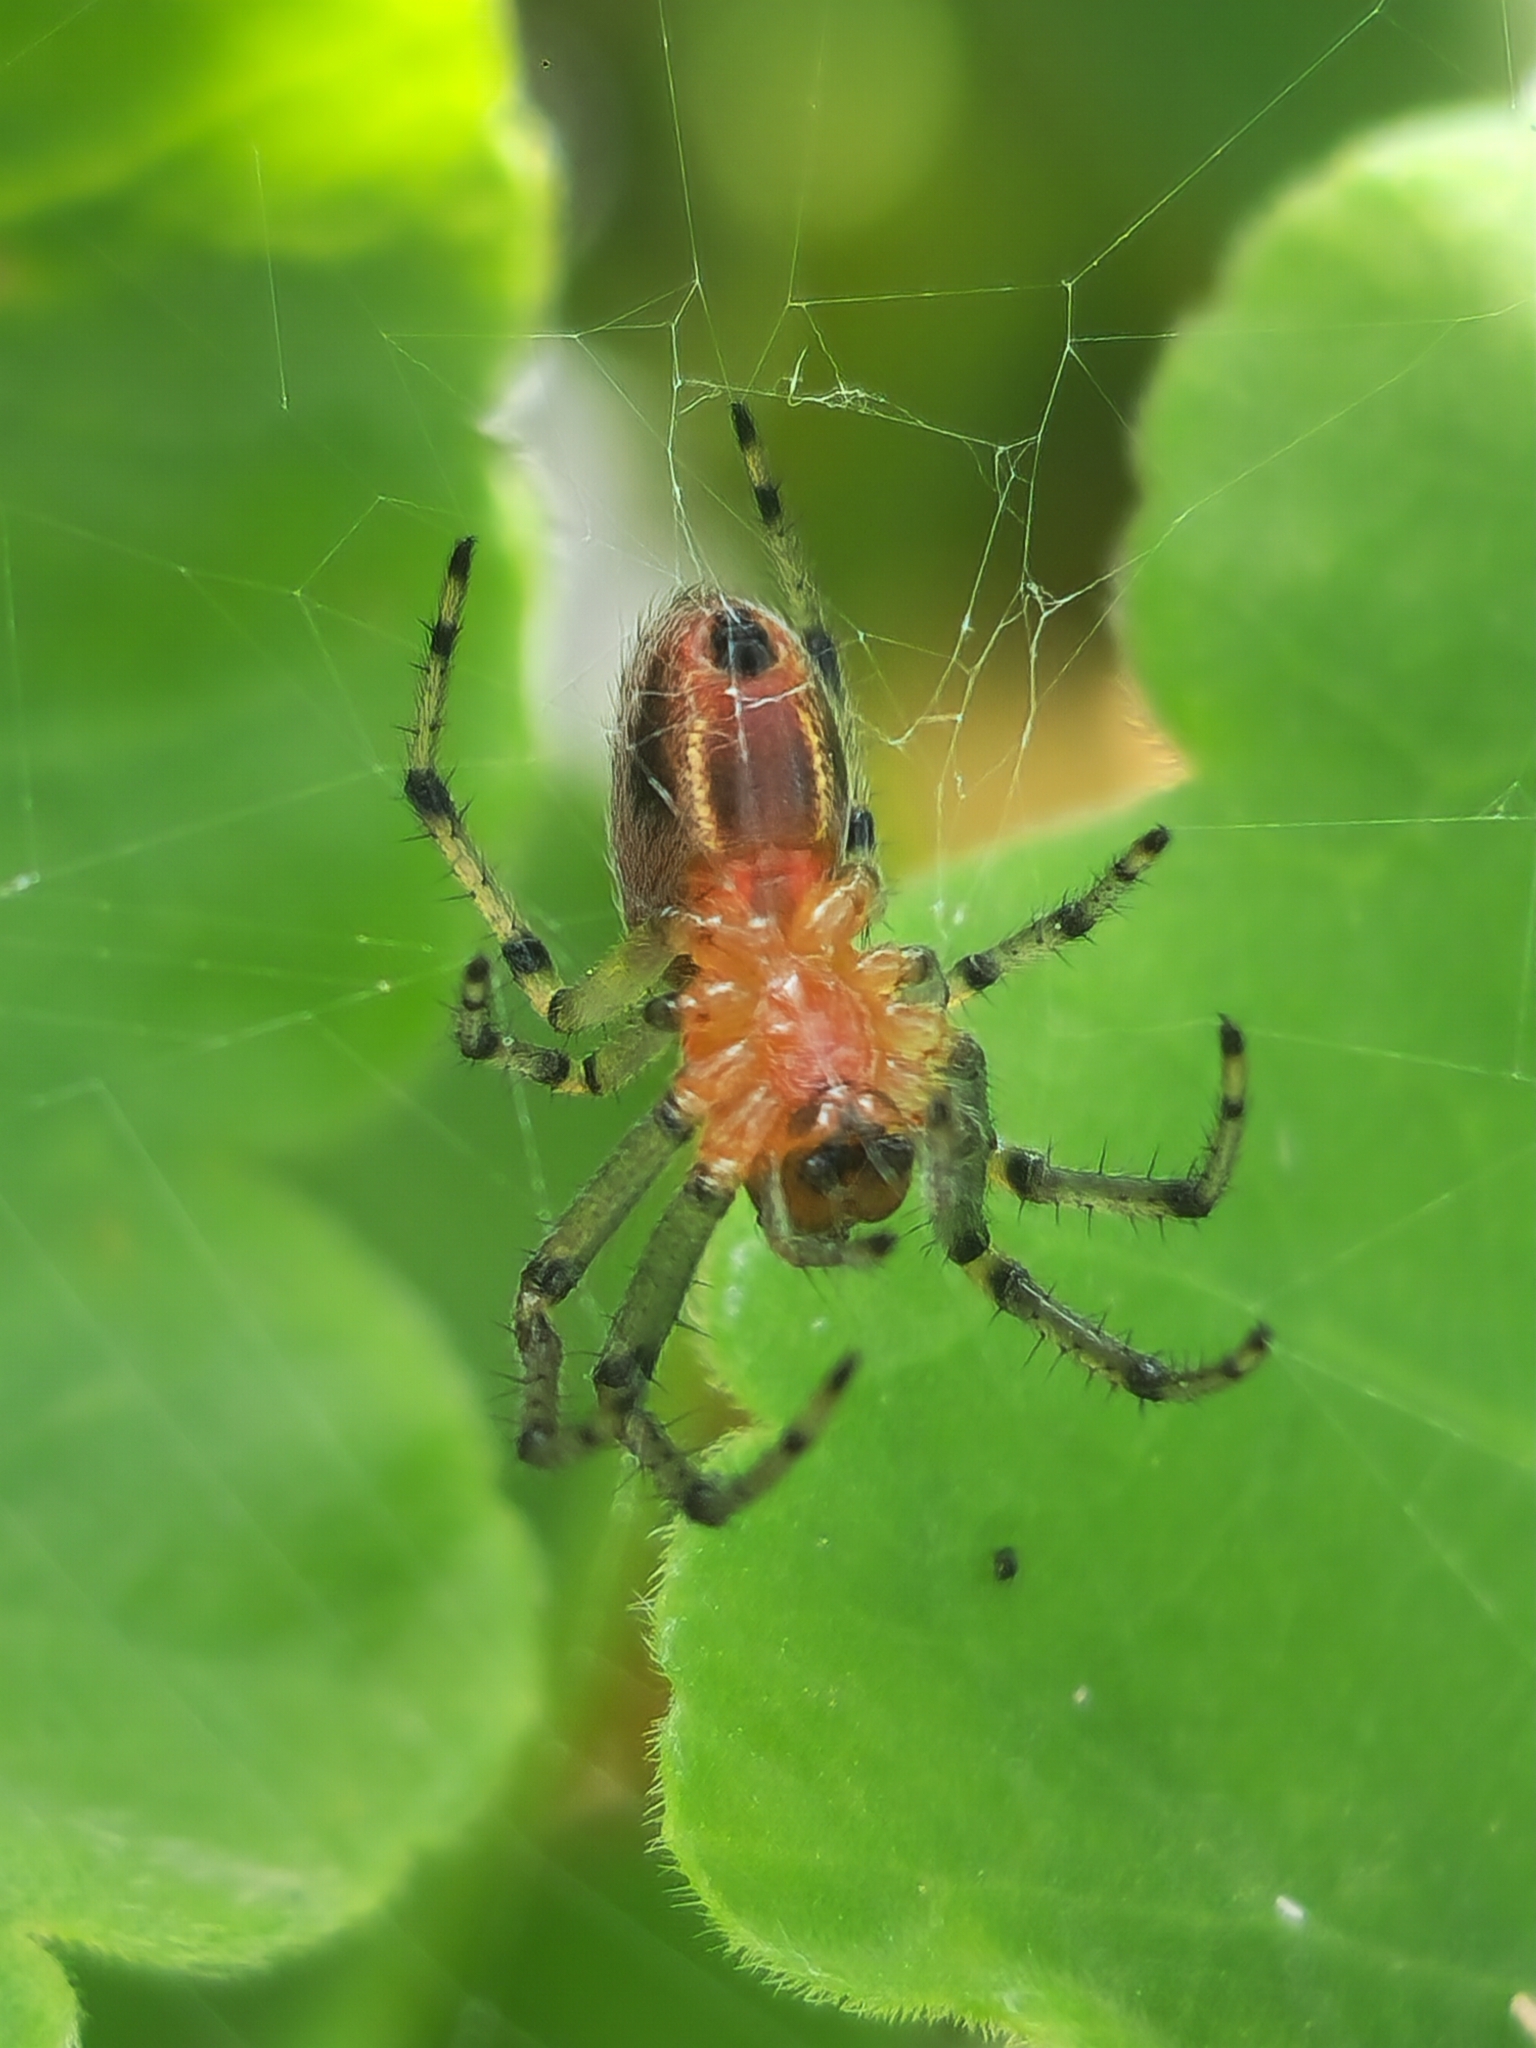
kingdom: Animalia
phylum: Arthropoda
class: Arachnida
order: Araneae
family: Araneidae
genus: Alpaida
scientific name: Alpaida veniliae
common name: Orb weavers
